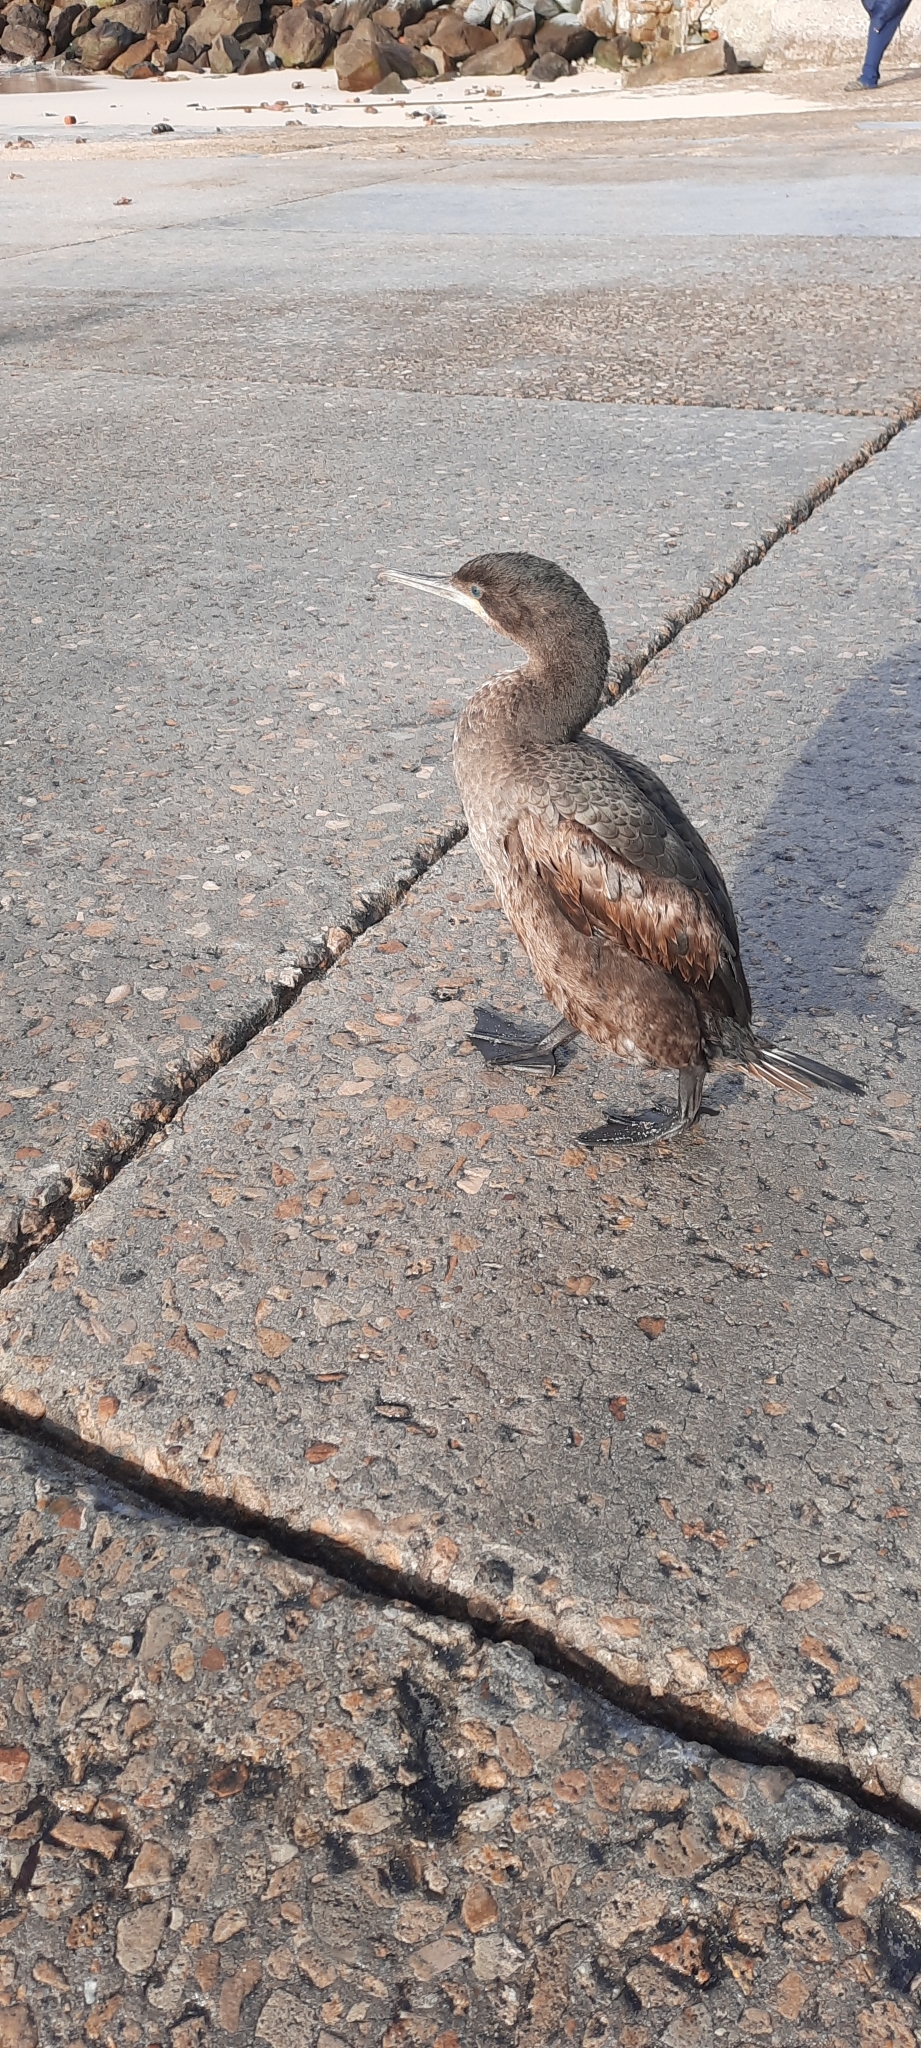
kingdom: Animalia
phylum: Chordata
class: Aves
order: Suliformes
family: Phalacrocoracidae
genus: Phalacrocorax
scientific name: Phalacrocorax capensis
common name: Cape cormorant
